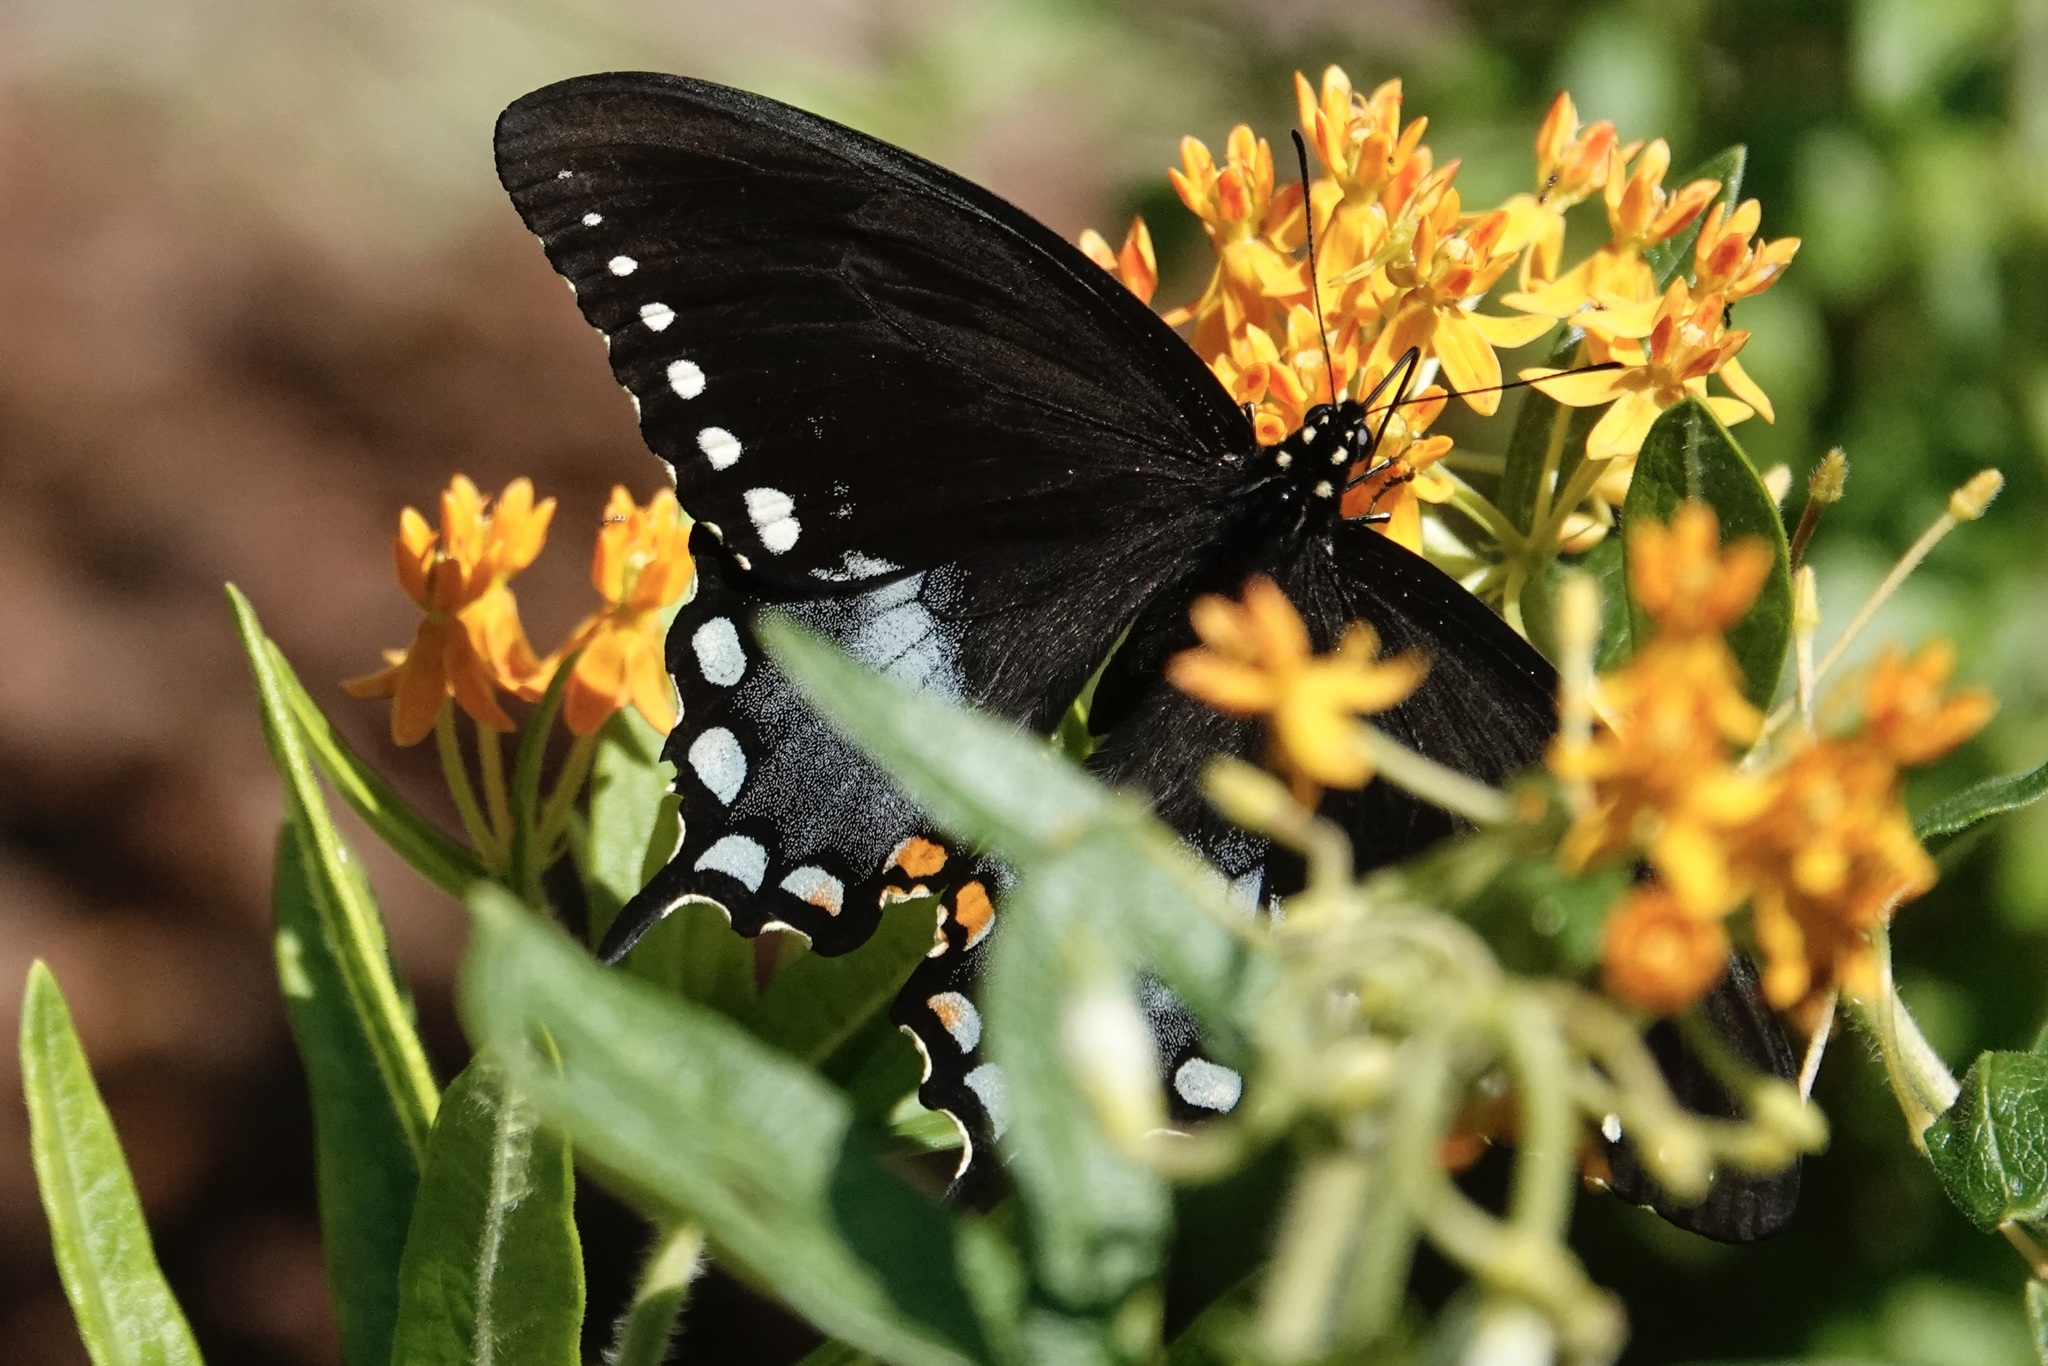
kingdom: Animalia
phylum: Arthropoda
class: Insecta
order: Lepidoptera
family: Papilionidae
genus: Papilio
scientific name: Papilio troilus
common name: Spicebush swallowtail
